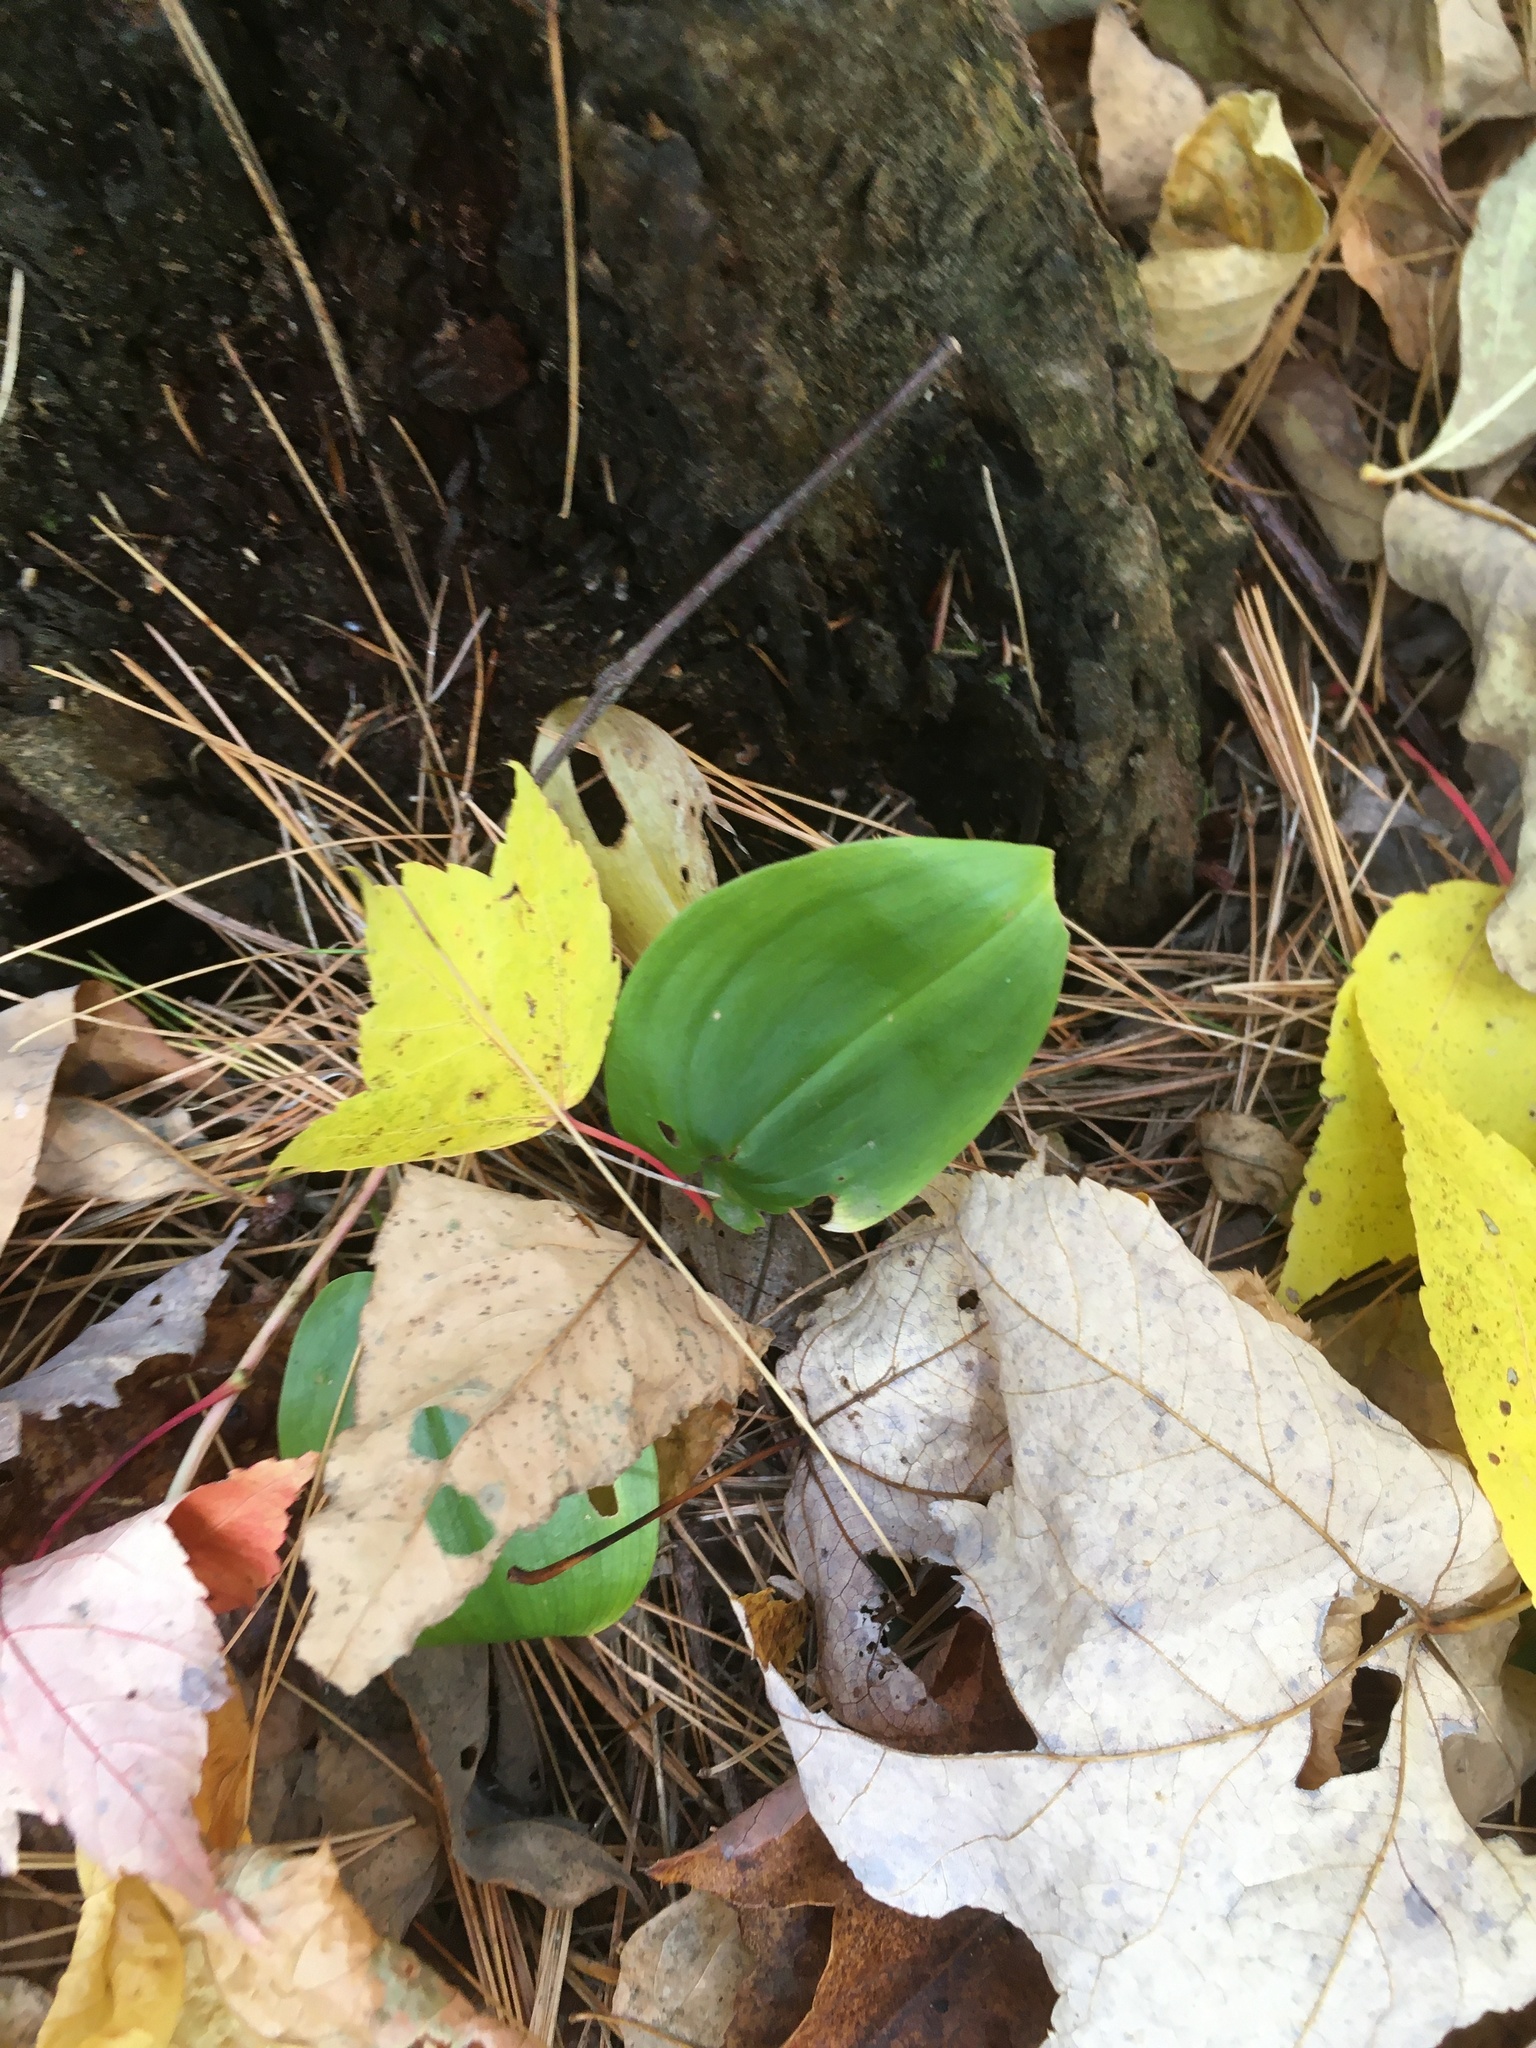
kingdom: Plantae
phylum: Tracheophyta
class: Liliopsida
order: Asparagales
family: Asparagaceae
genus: Maianthemum
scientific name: Maianthemum canadense
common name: False lily-of-the-valley
